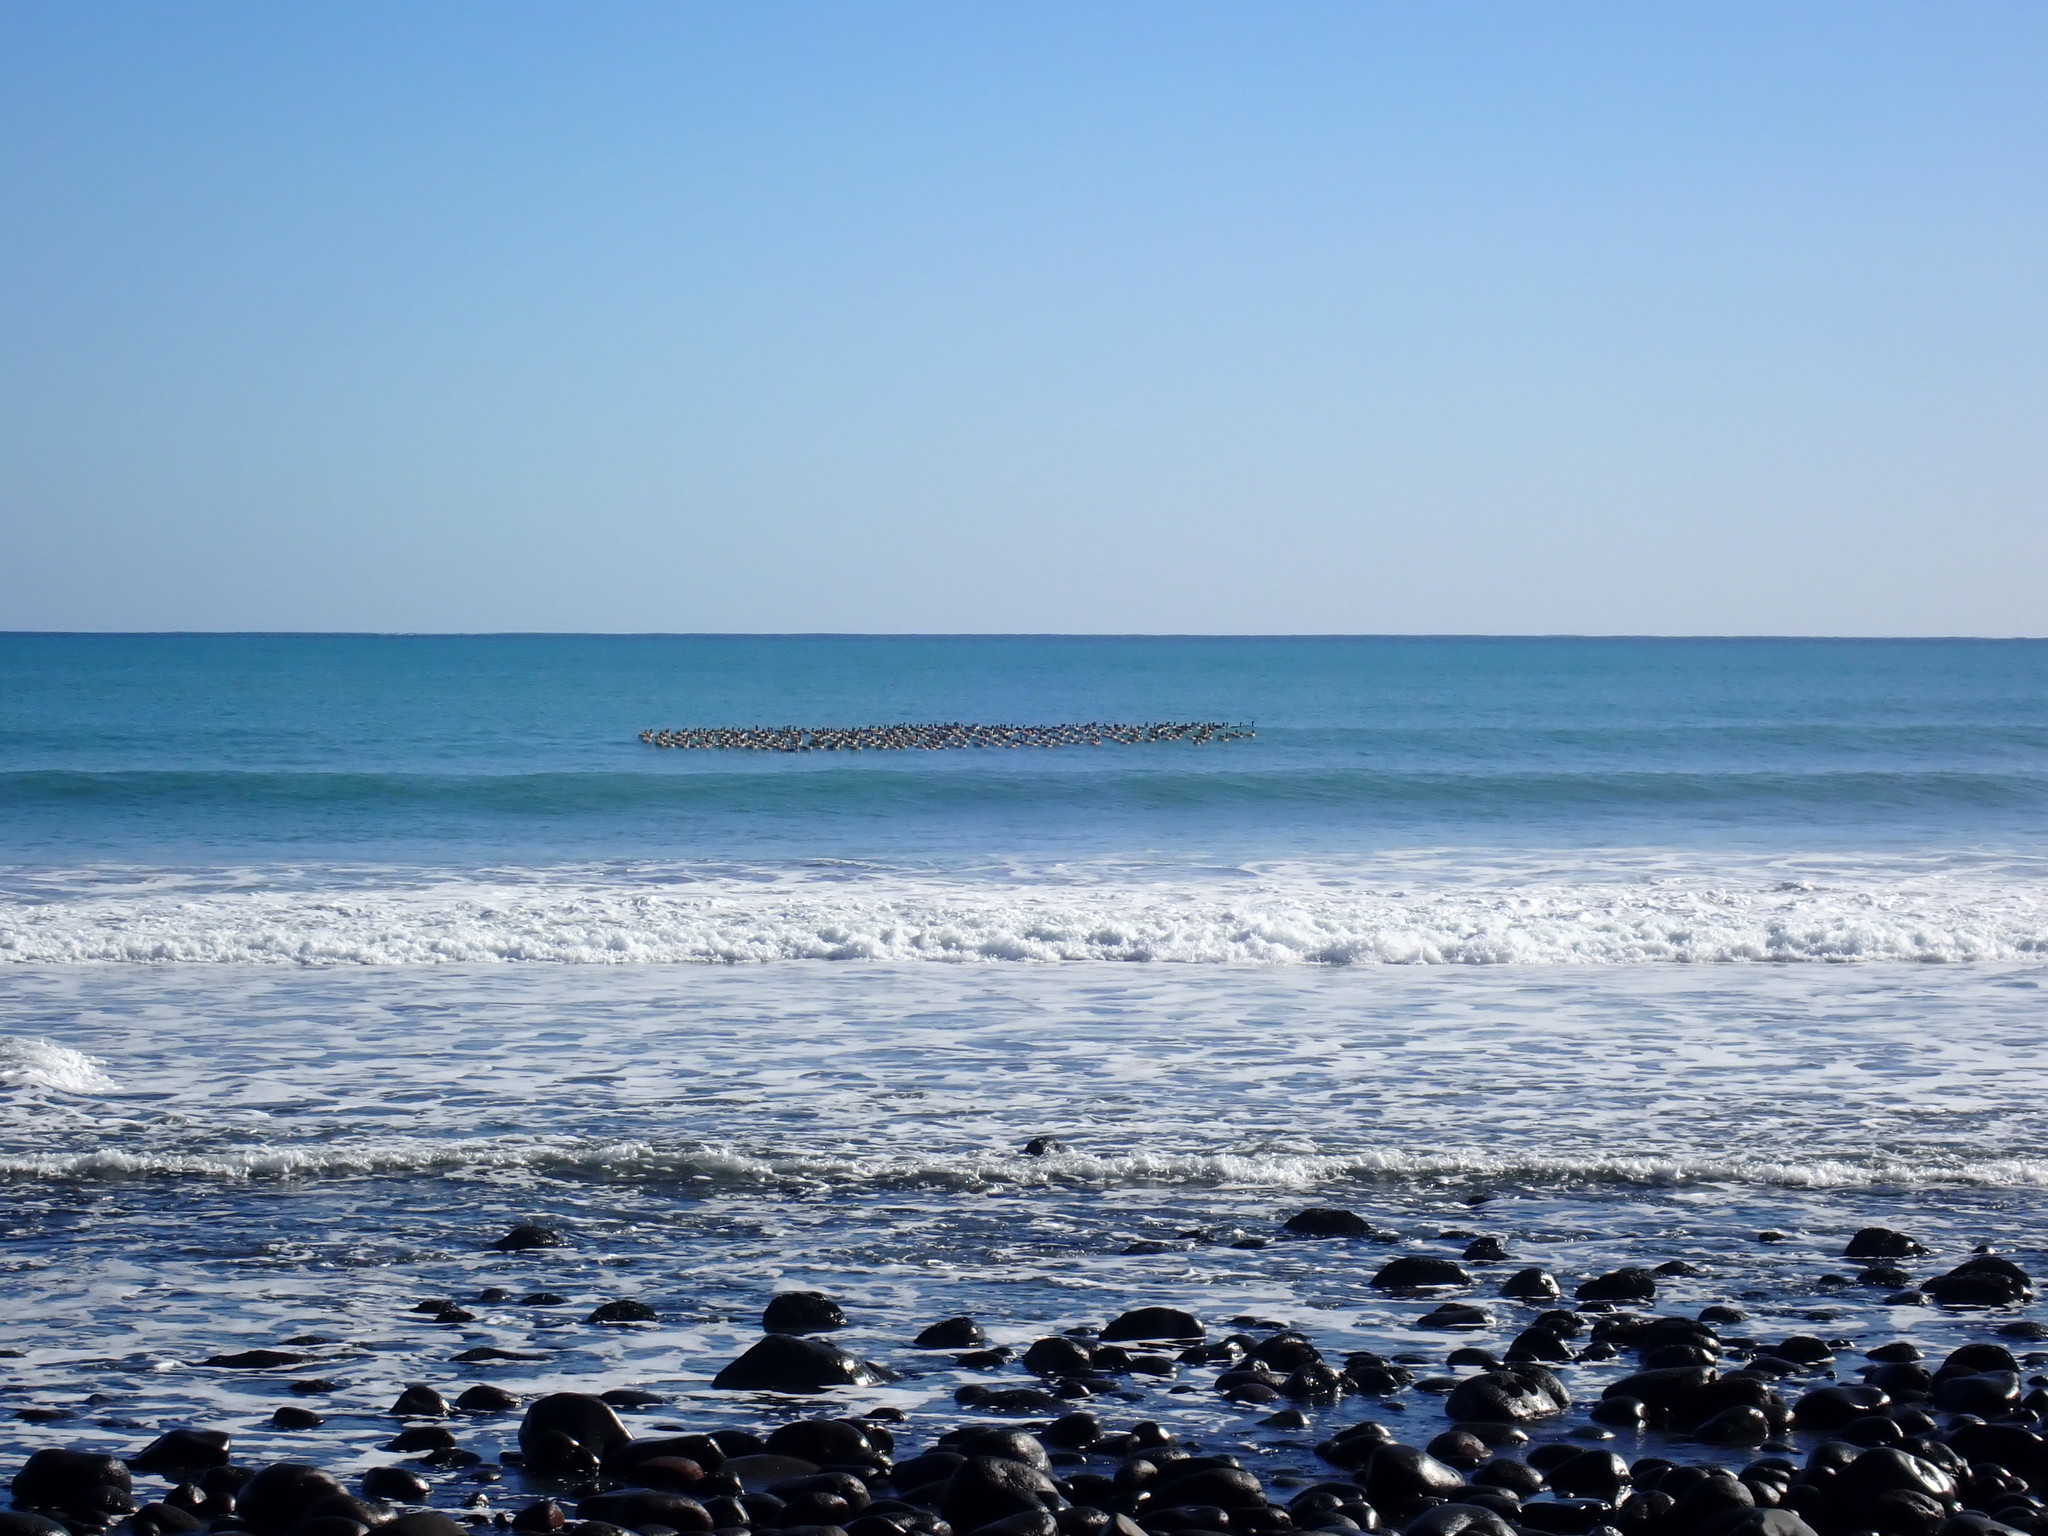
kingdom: Animalia
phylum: Chordata
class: Aves
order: Anseriformes
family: Anatidae
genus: Branta
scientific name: Branta canadensis
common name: Canada goose
